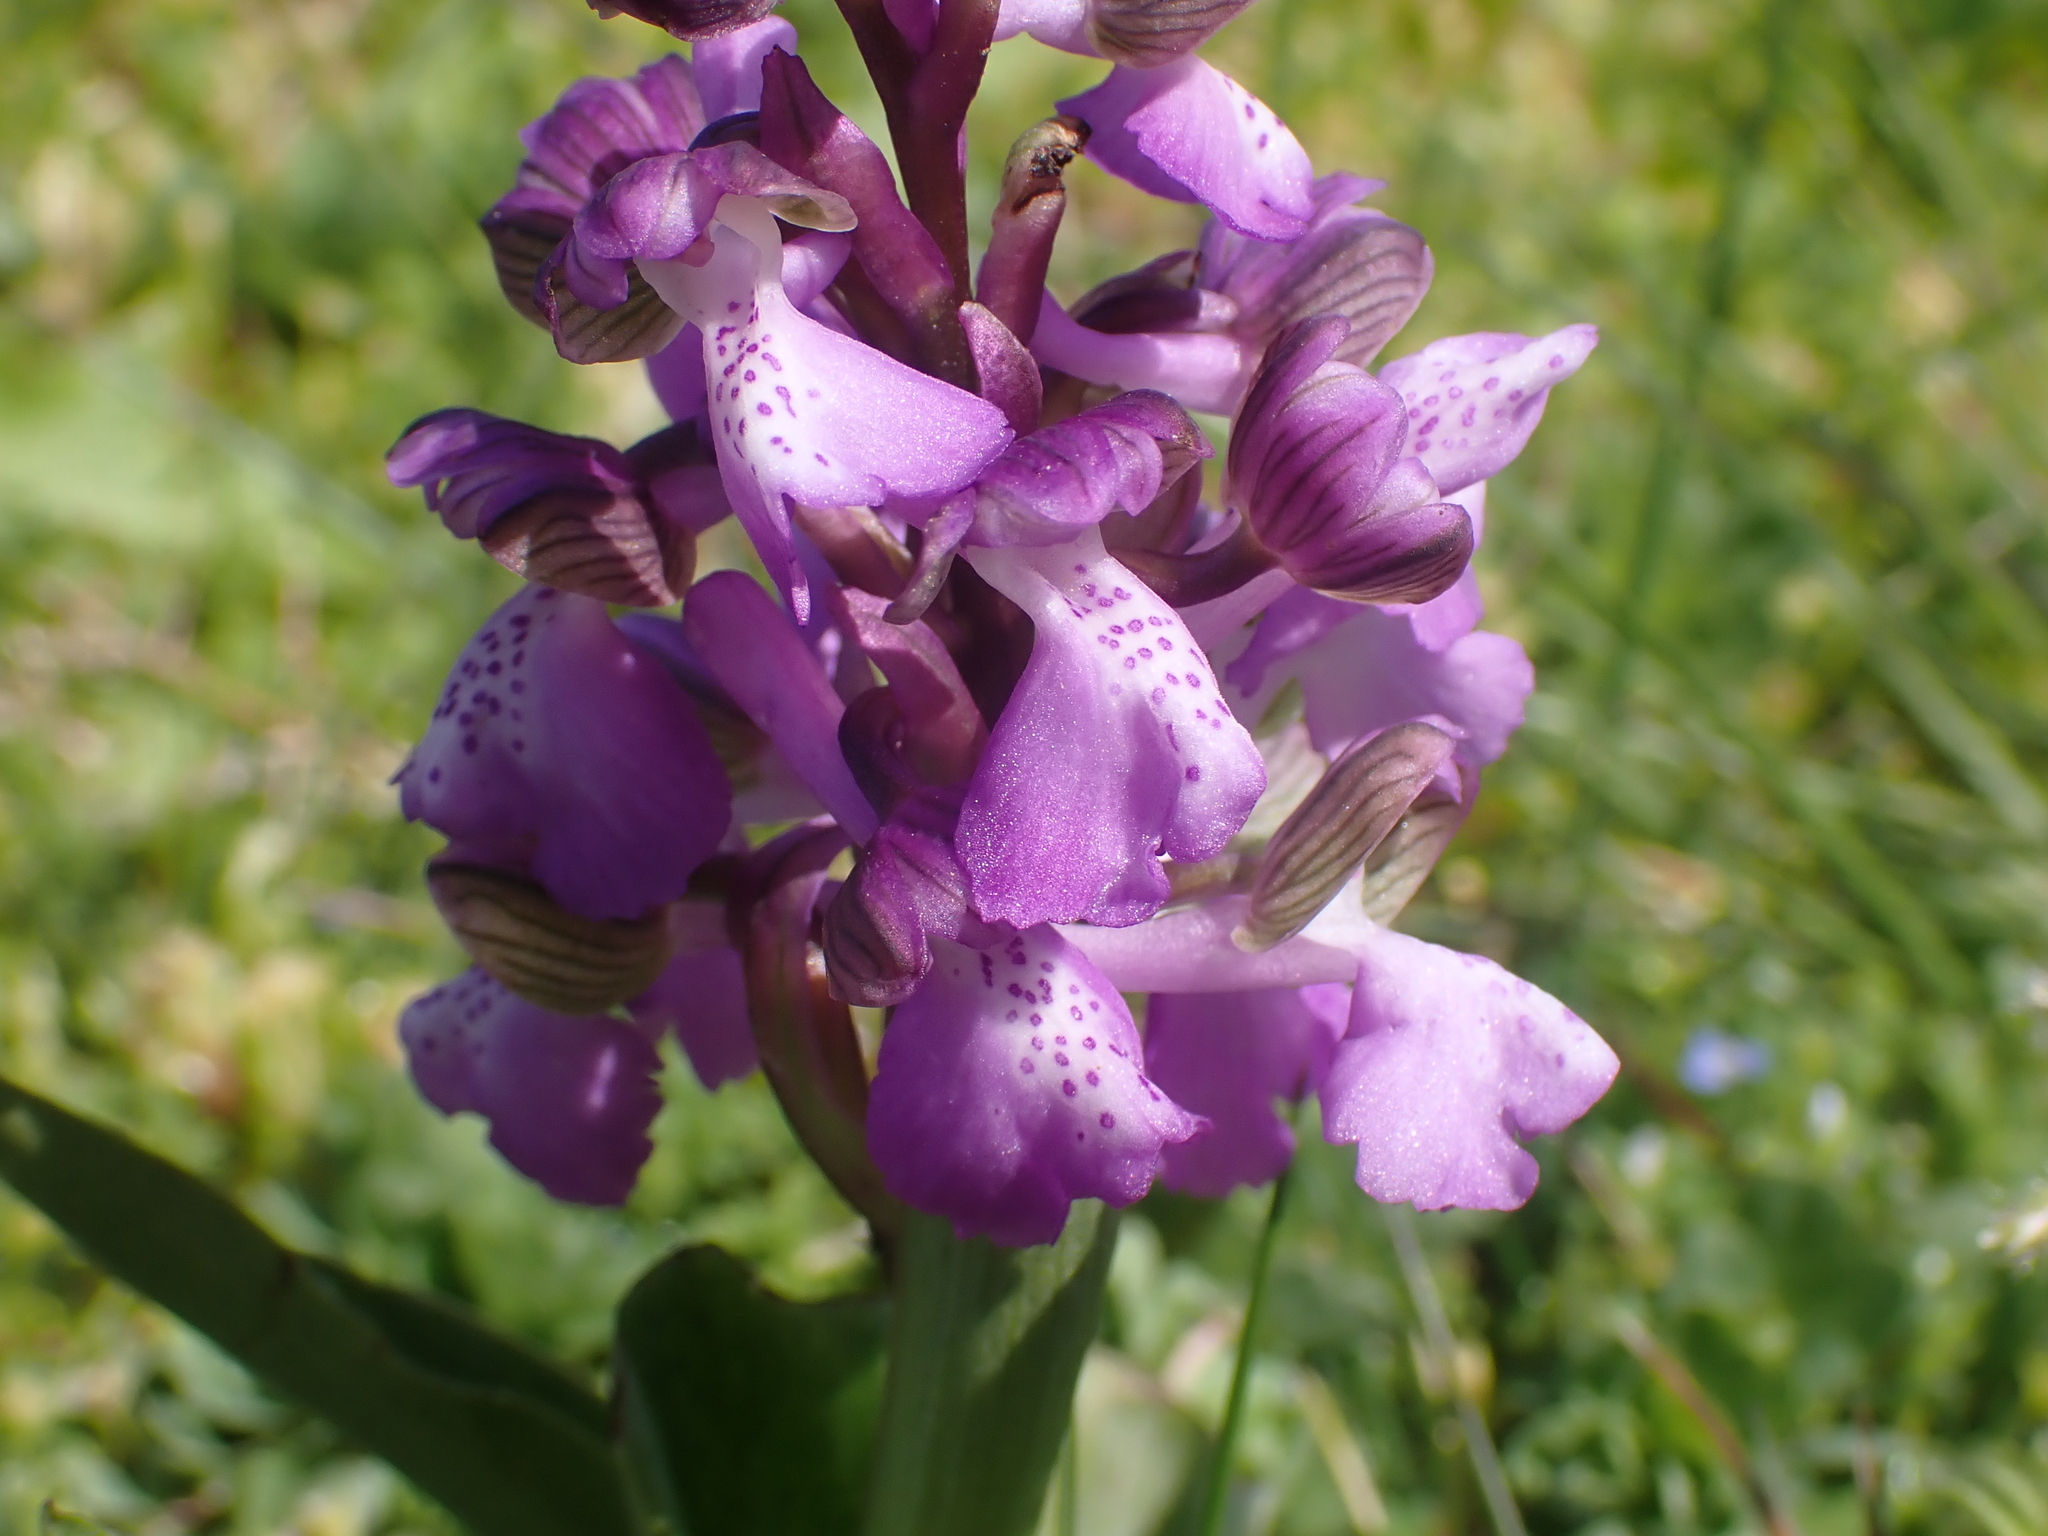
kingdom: Plantae
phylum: Tracheophyta
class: Liliopsida
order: Asparagales
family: Orchidaceae
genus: Anacamptis
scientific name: Anacamptis morio
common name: Green-winged orchid
